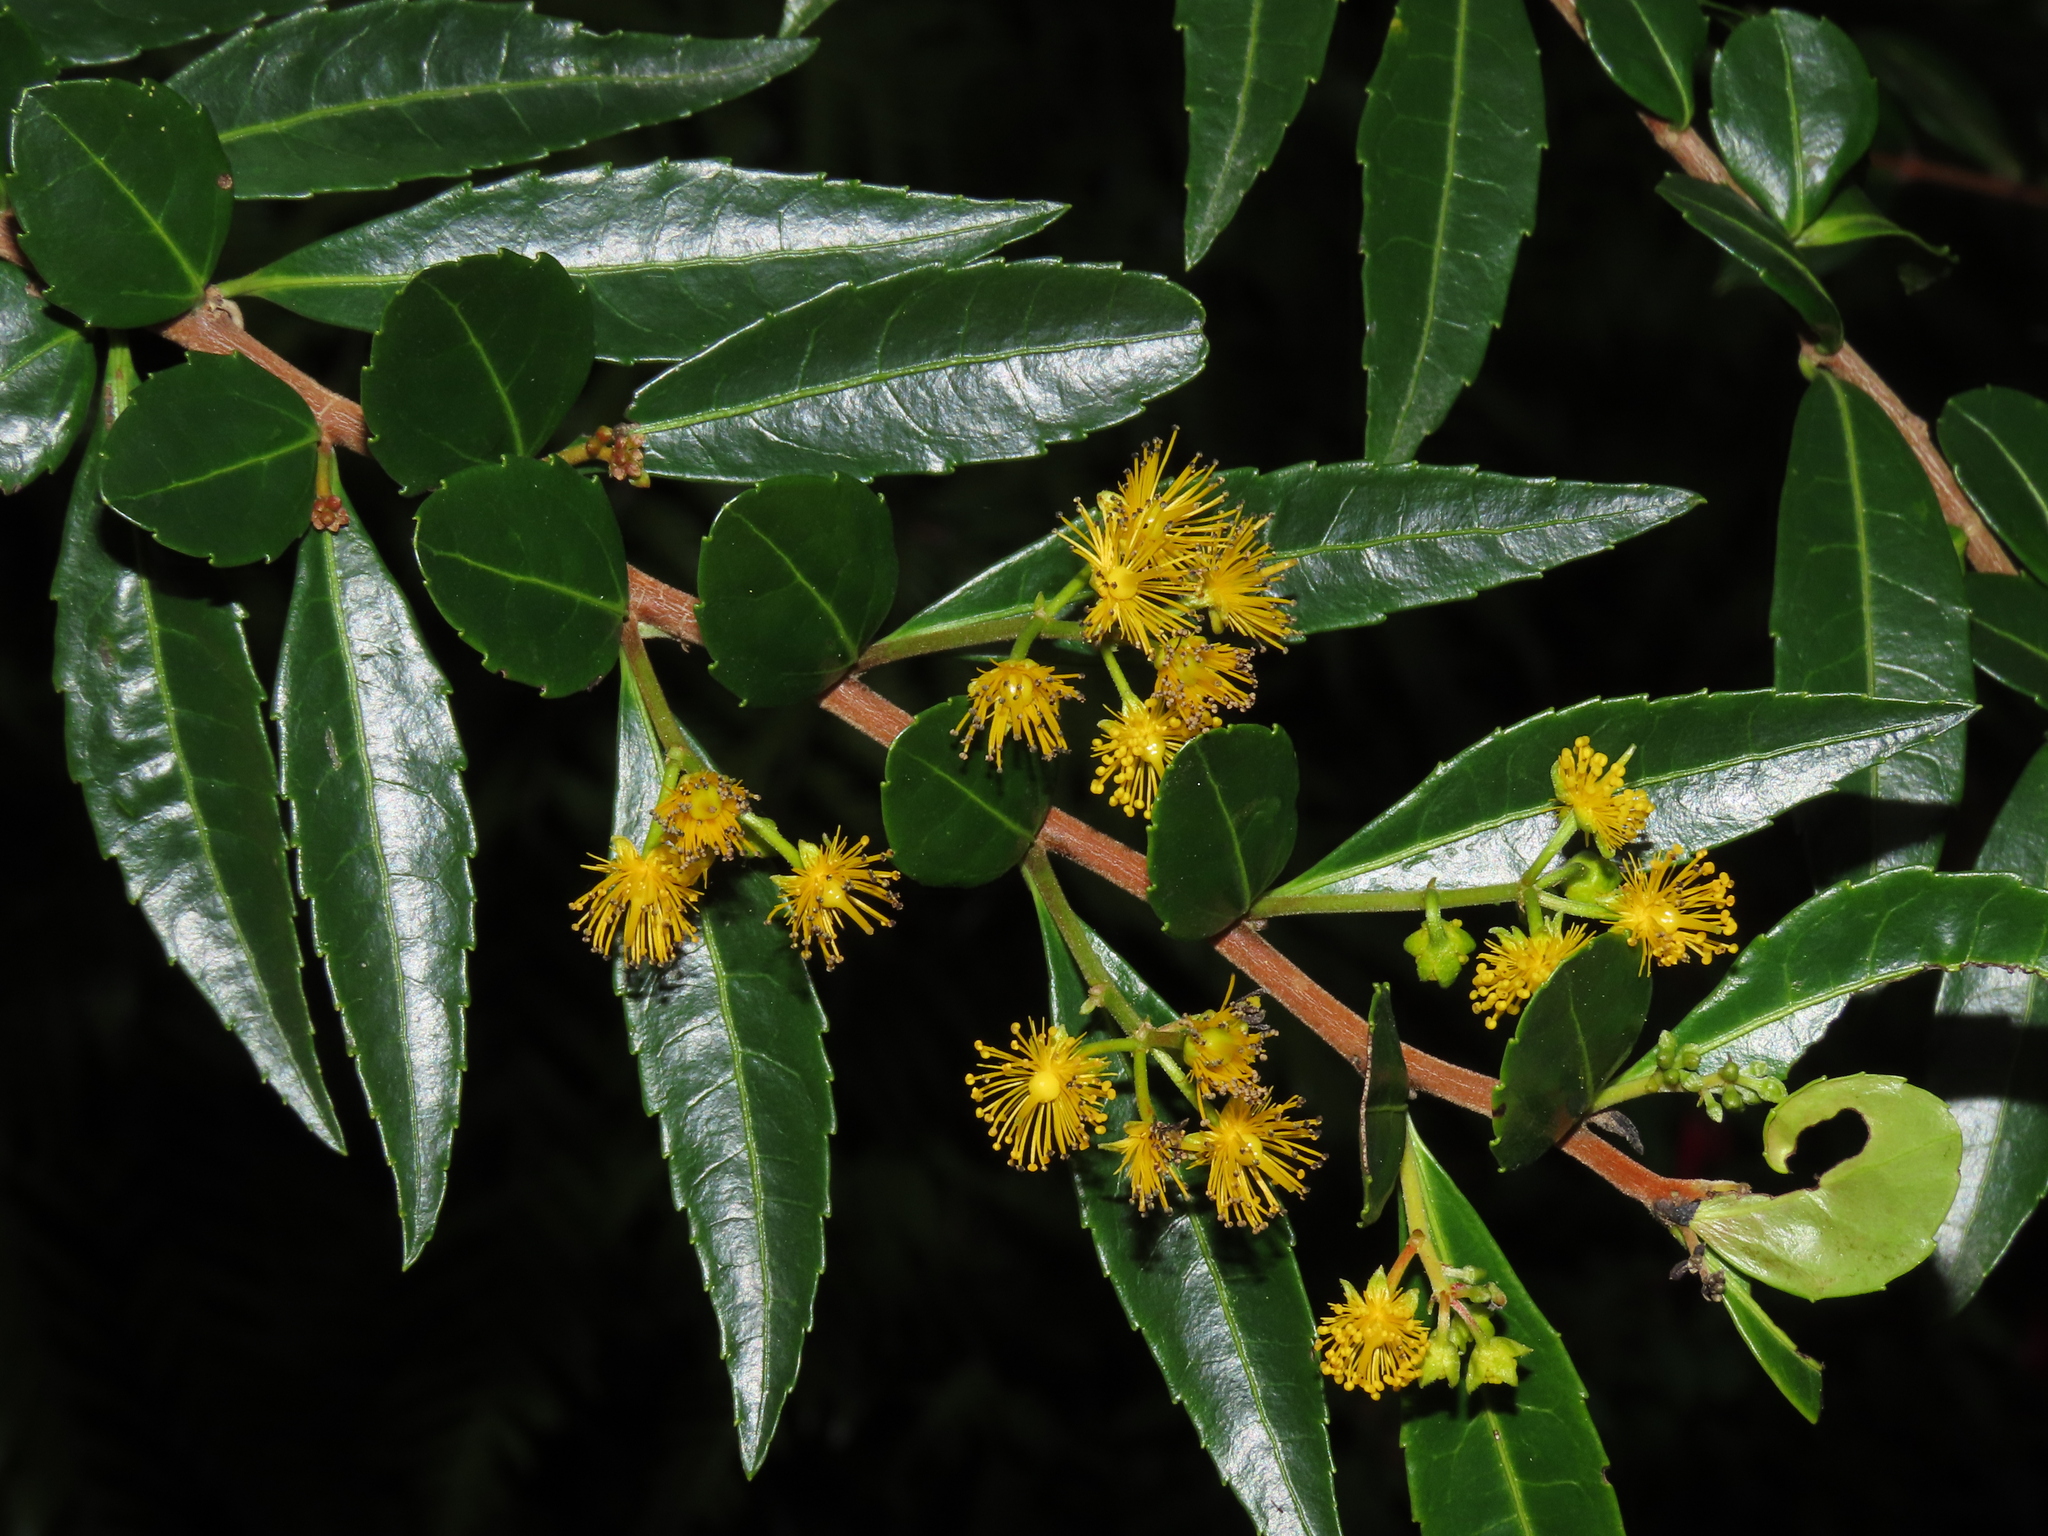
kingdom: Plantae
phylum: Tracheophyta
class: Magnoliopsida
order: Malpighiales
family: Salicaceae
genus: Azara
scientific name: Azara lanceolata
